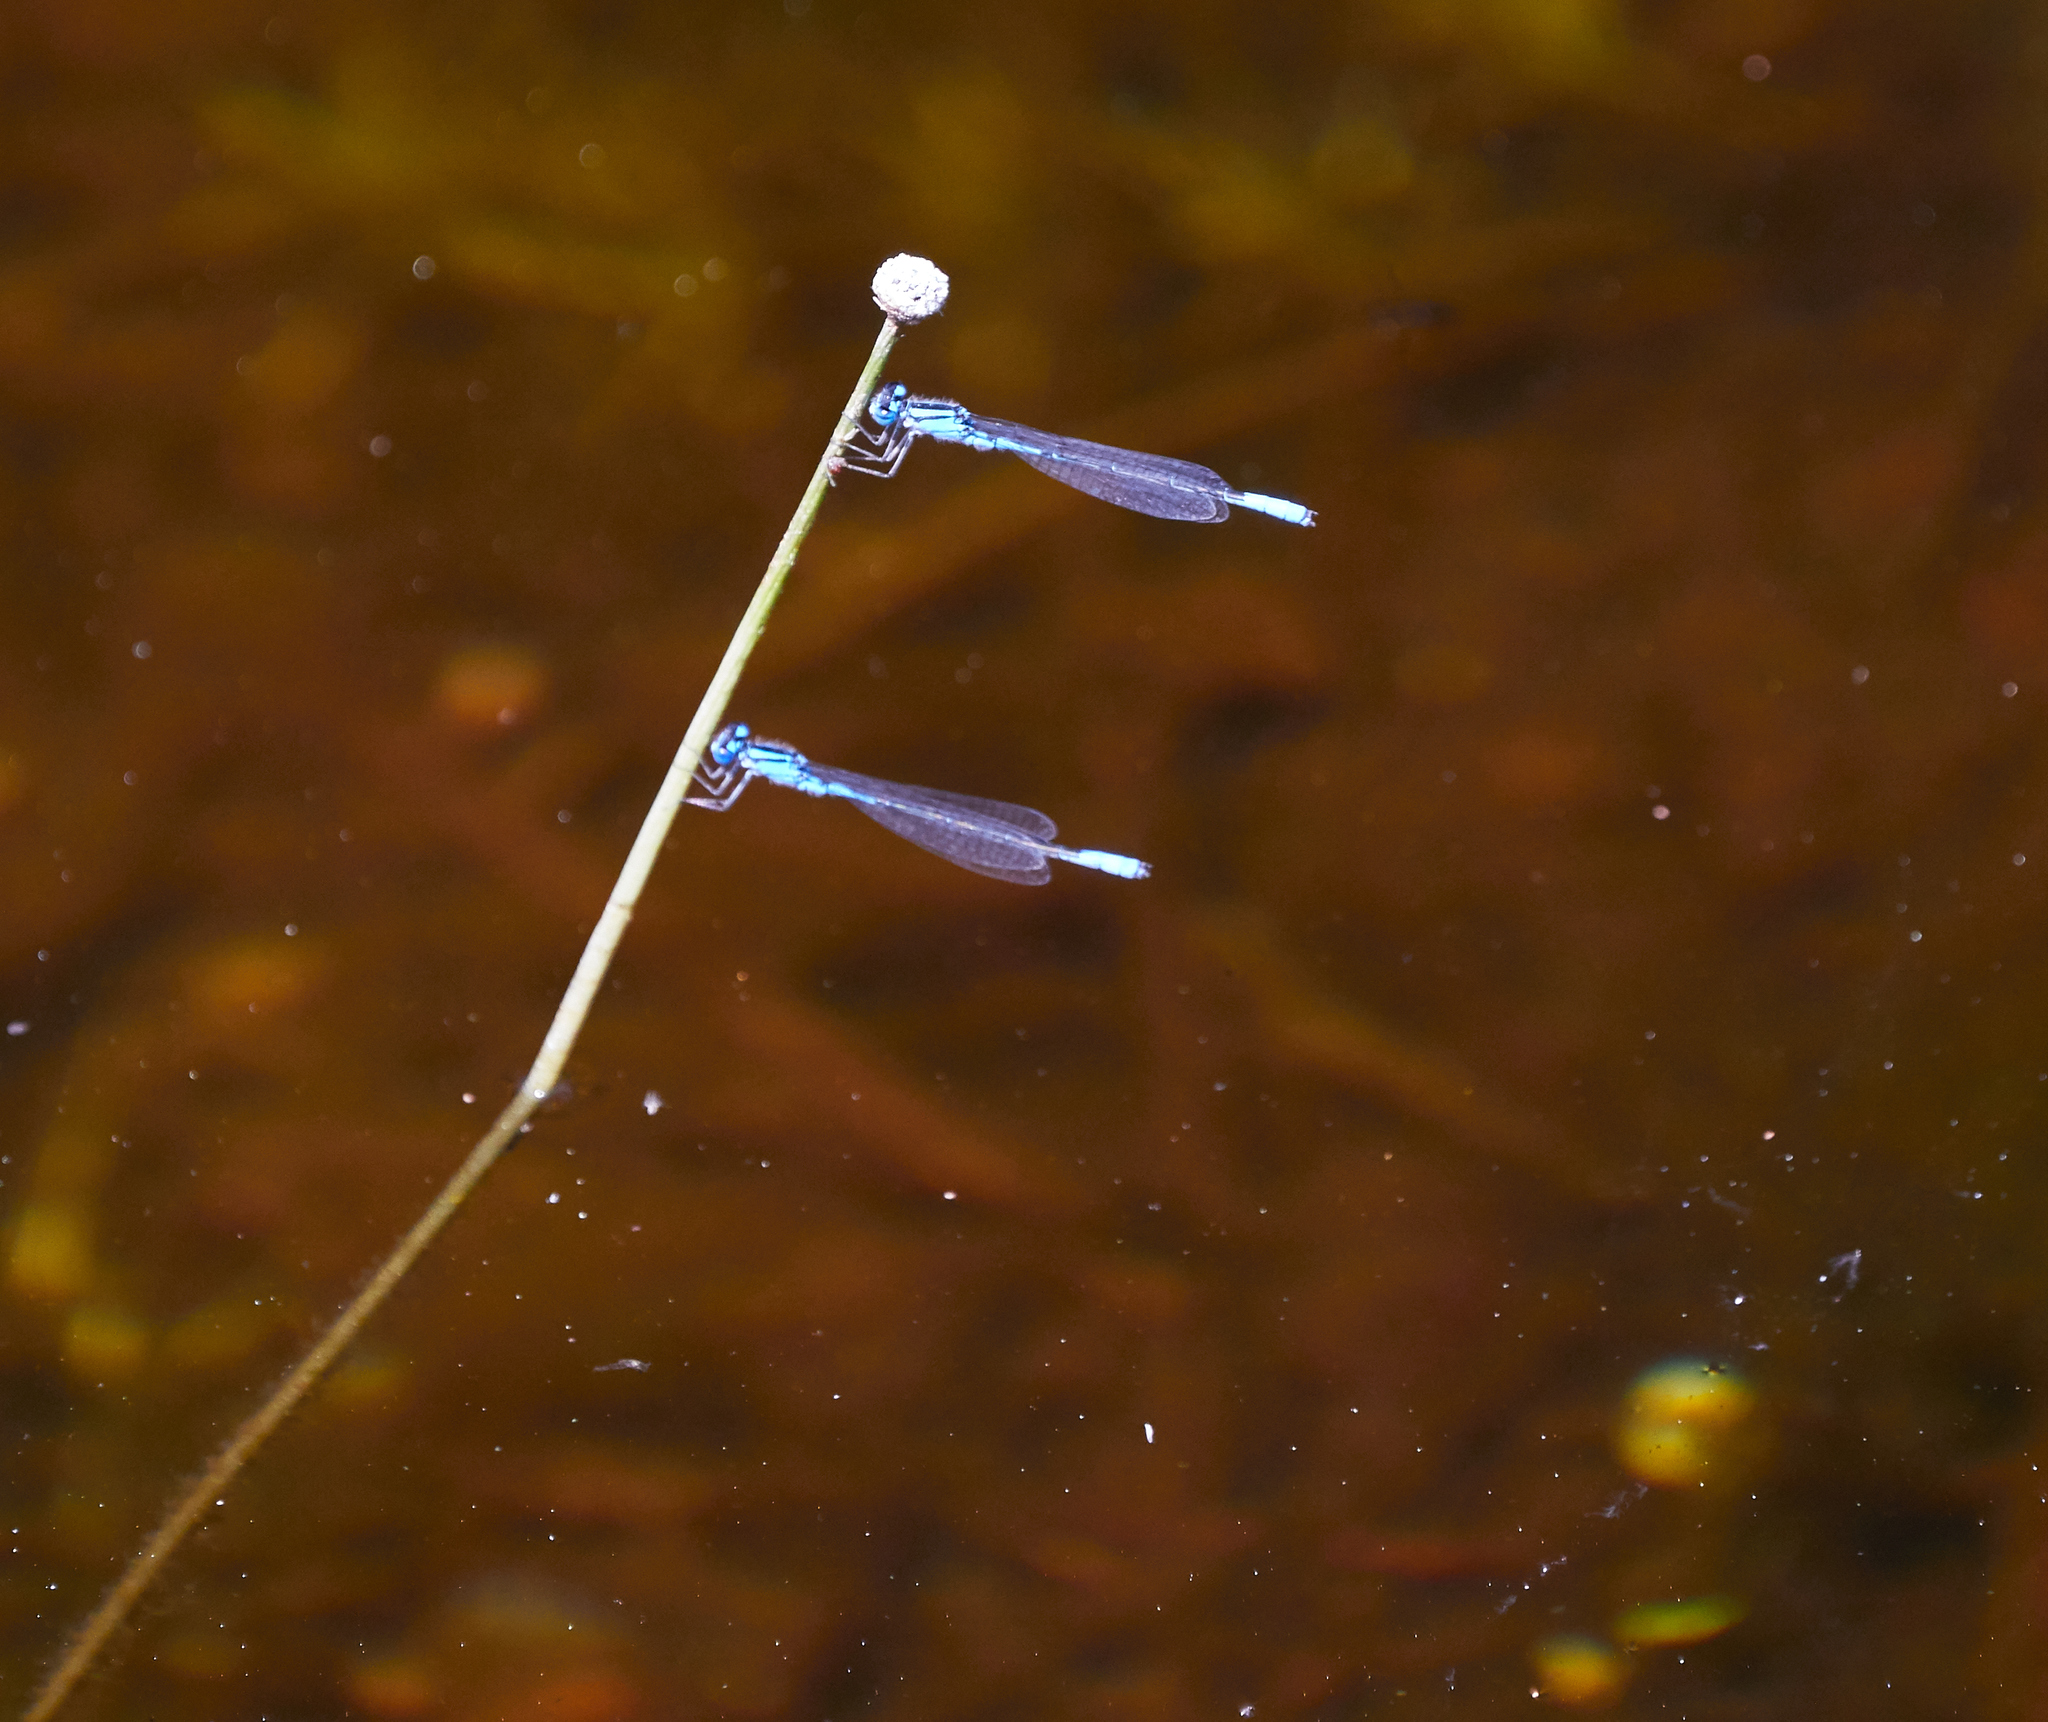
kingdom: Animalia
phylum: Arthropoda
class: Insecta
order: Odonata
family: Coenagrionidae
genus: Enallagma
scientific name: Enallagma aspersum
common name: Azure bluet
